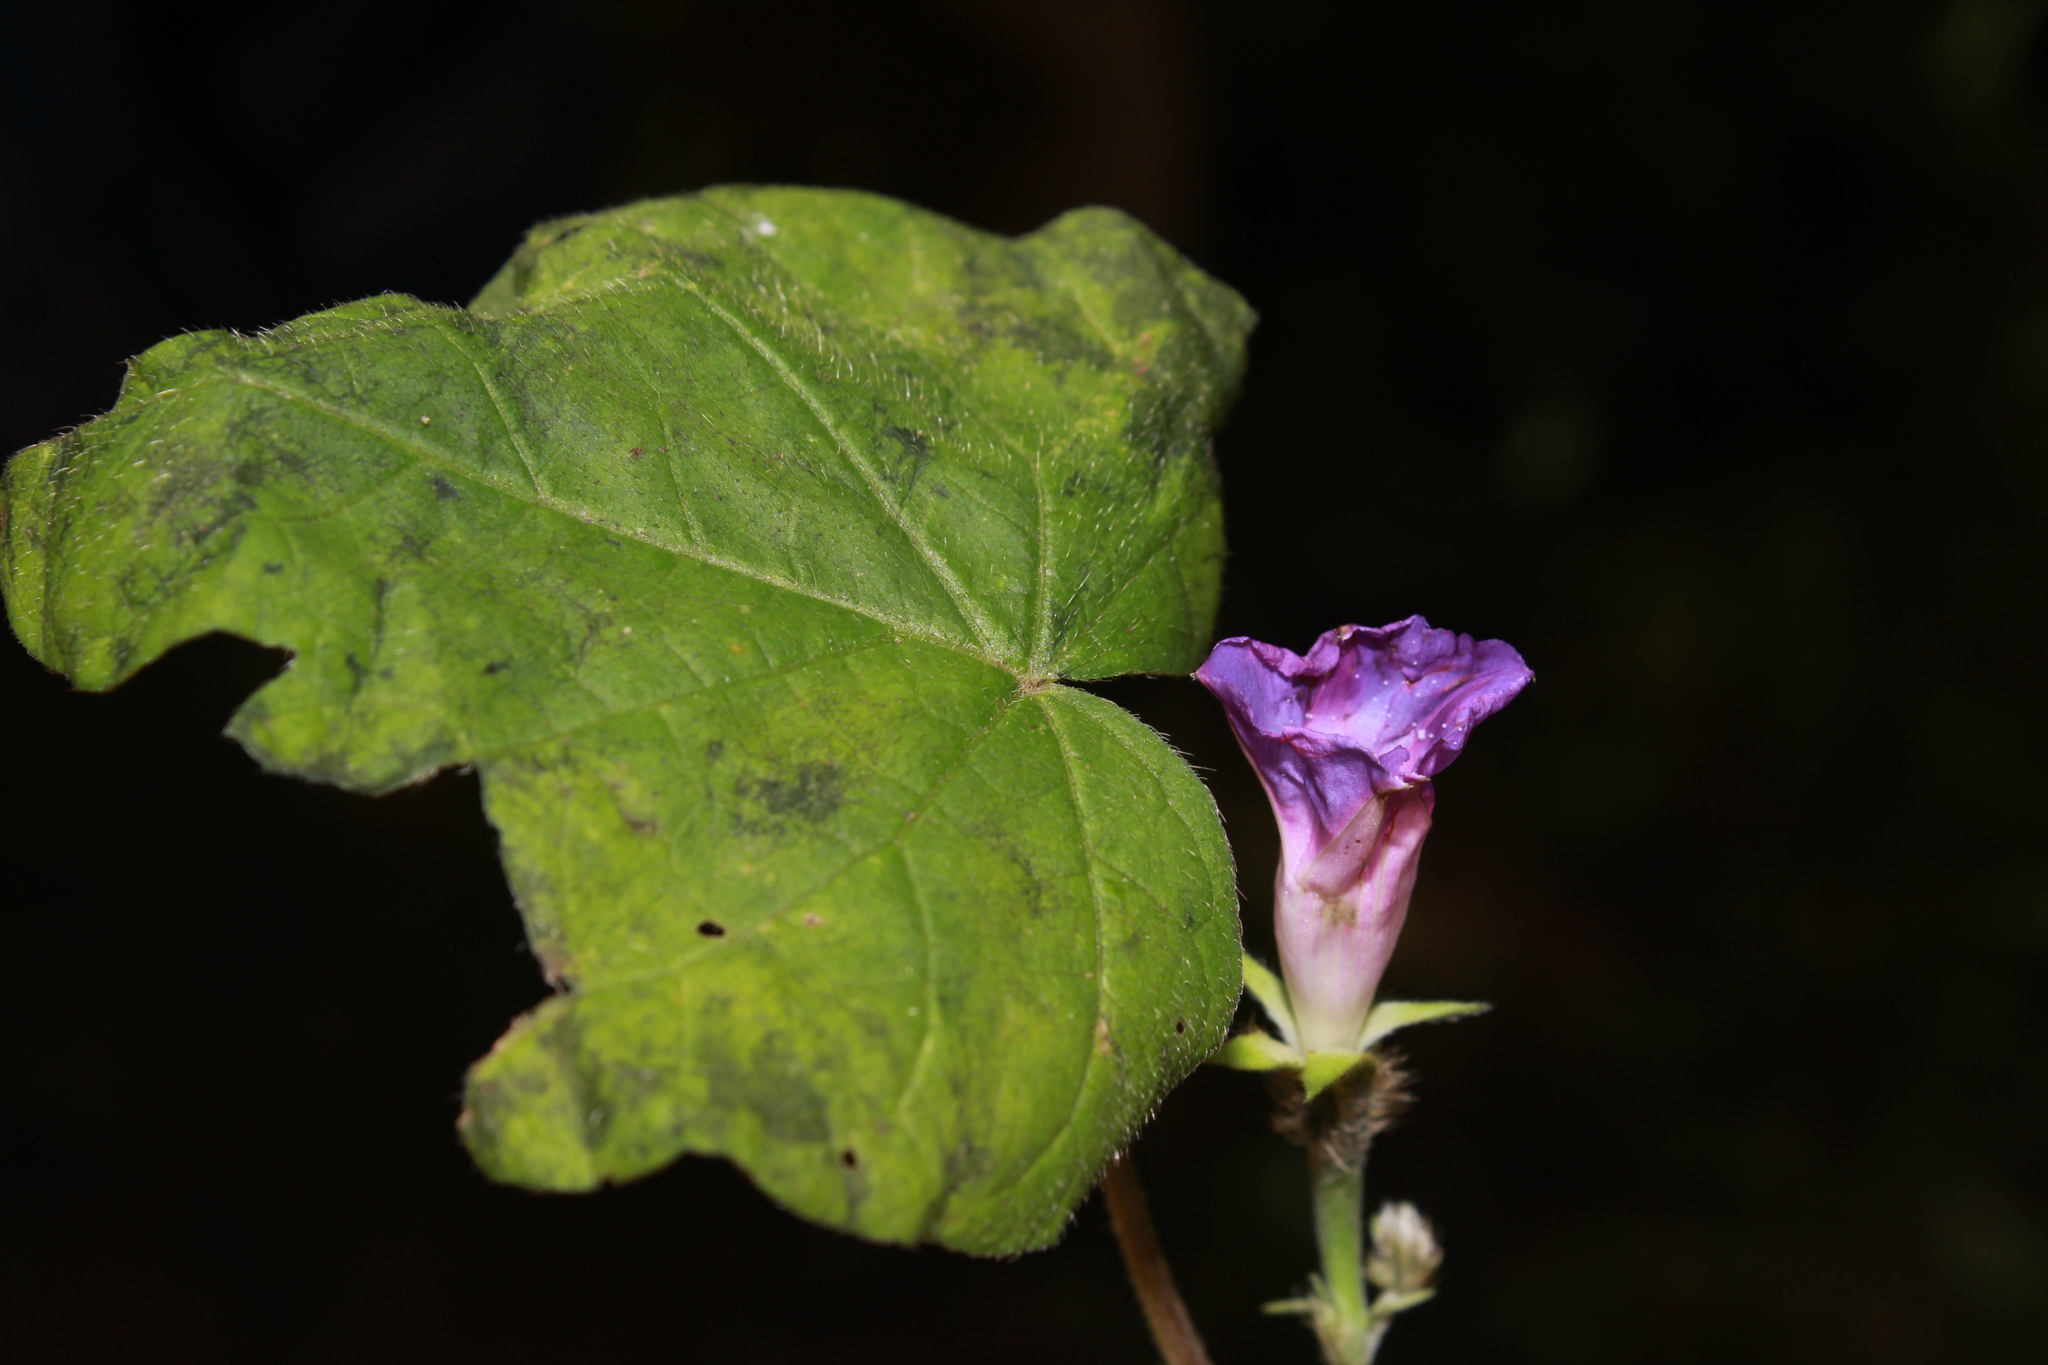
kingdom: Plantae
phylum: Tracheophyta
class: Magnoliopsida
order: Solanales
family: Convolvulaceae
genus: Ipomoea
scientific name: Ipomoea purpurea
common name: Common morning-glory
